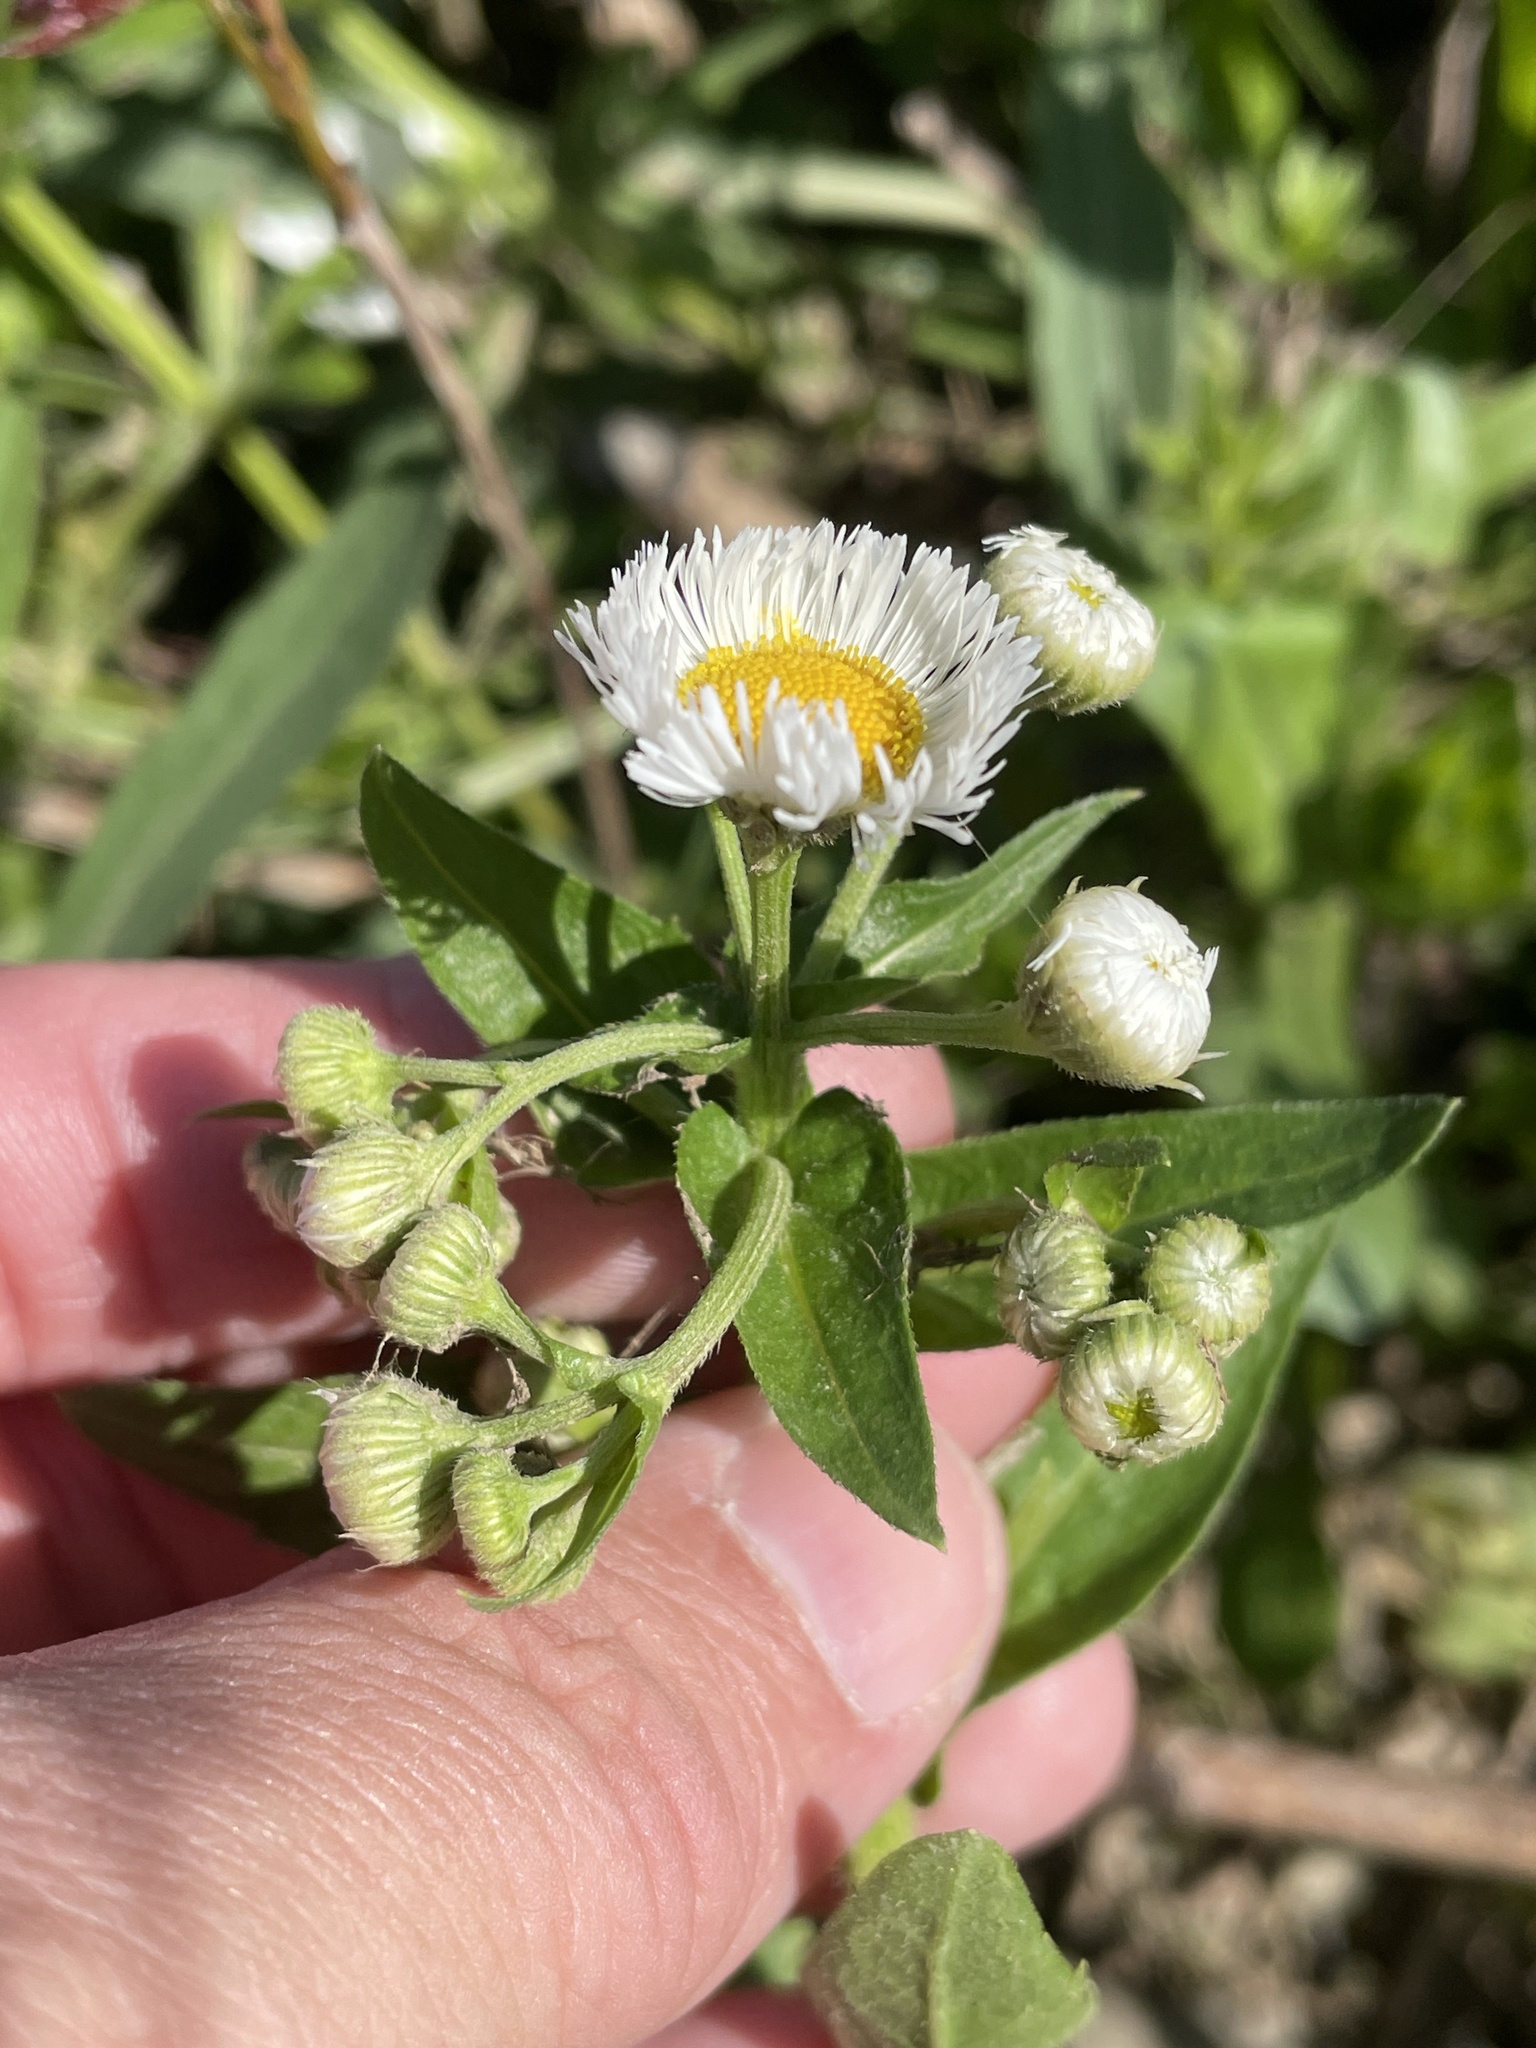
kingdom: Plantae
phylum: Tracheophyta
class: Magnoliopsida
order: Asterales
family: Asteraceae
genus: Erigeron
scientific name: Erigeron strigosus
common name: Common eastern fleabane
